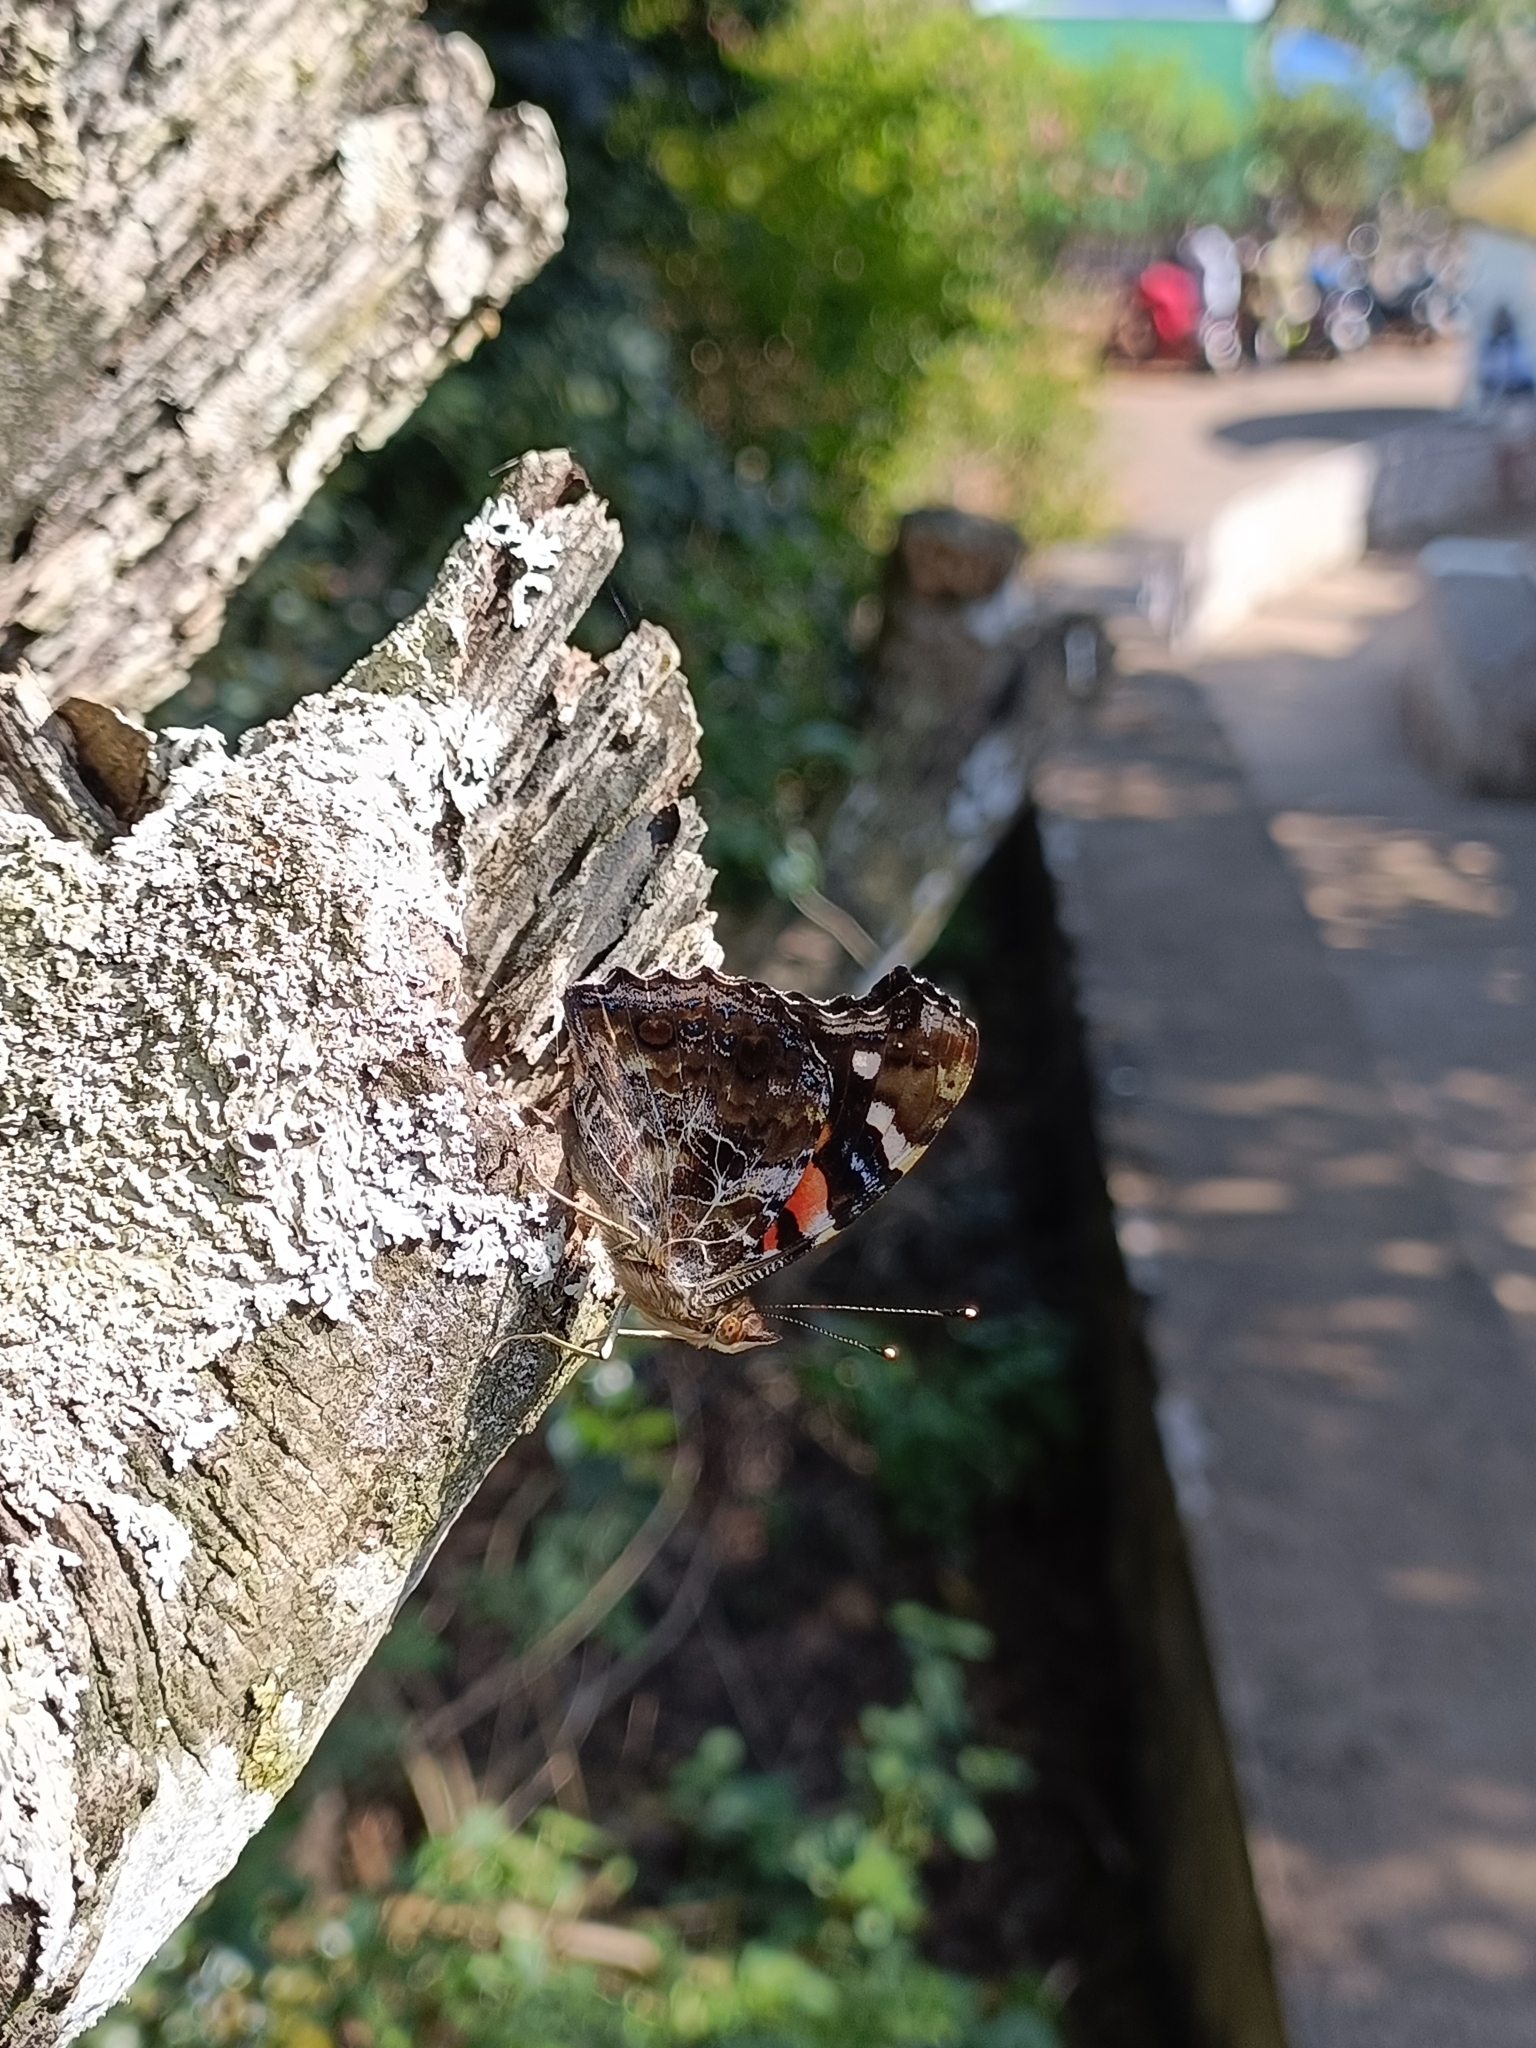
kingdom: Animalia
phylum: Arthropoda
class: Insecta
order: Lepidoptera
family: Nymphalidae
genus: Vanessa
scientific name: Vanessa indica
